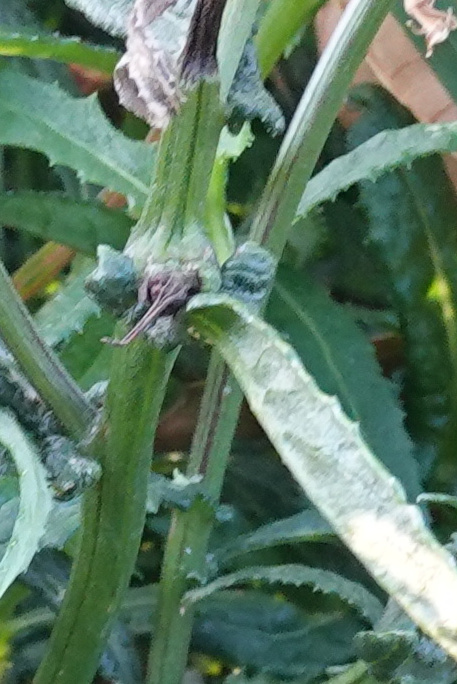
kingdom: Animalia
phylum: Arthropoda
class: Insecta
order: Diptera
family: Tephritidae
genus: Sphenella
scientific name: Sphenella
